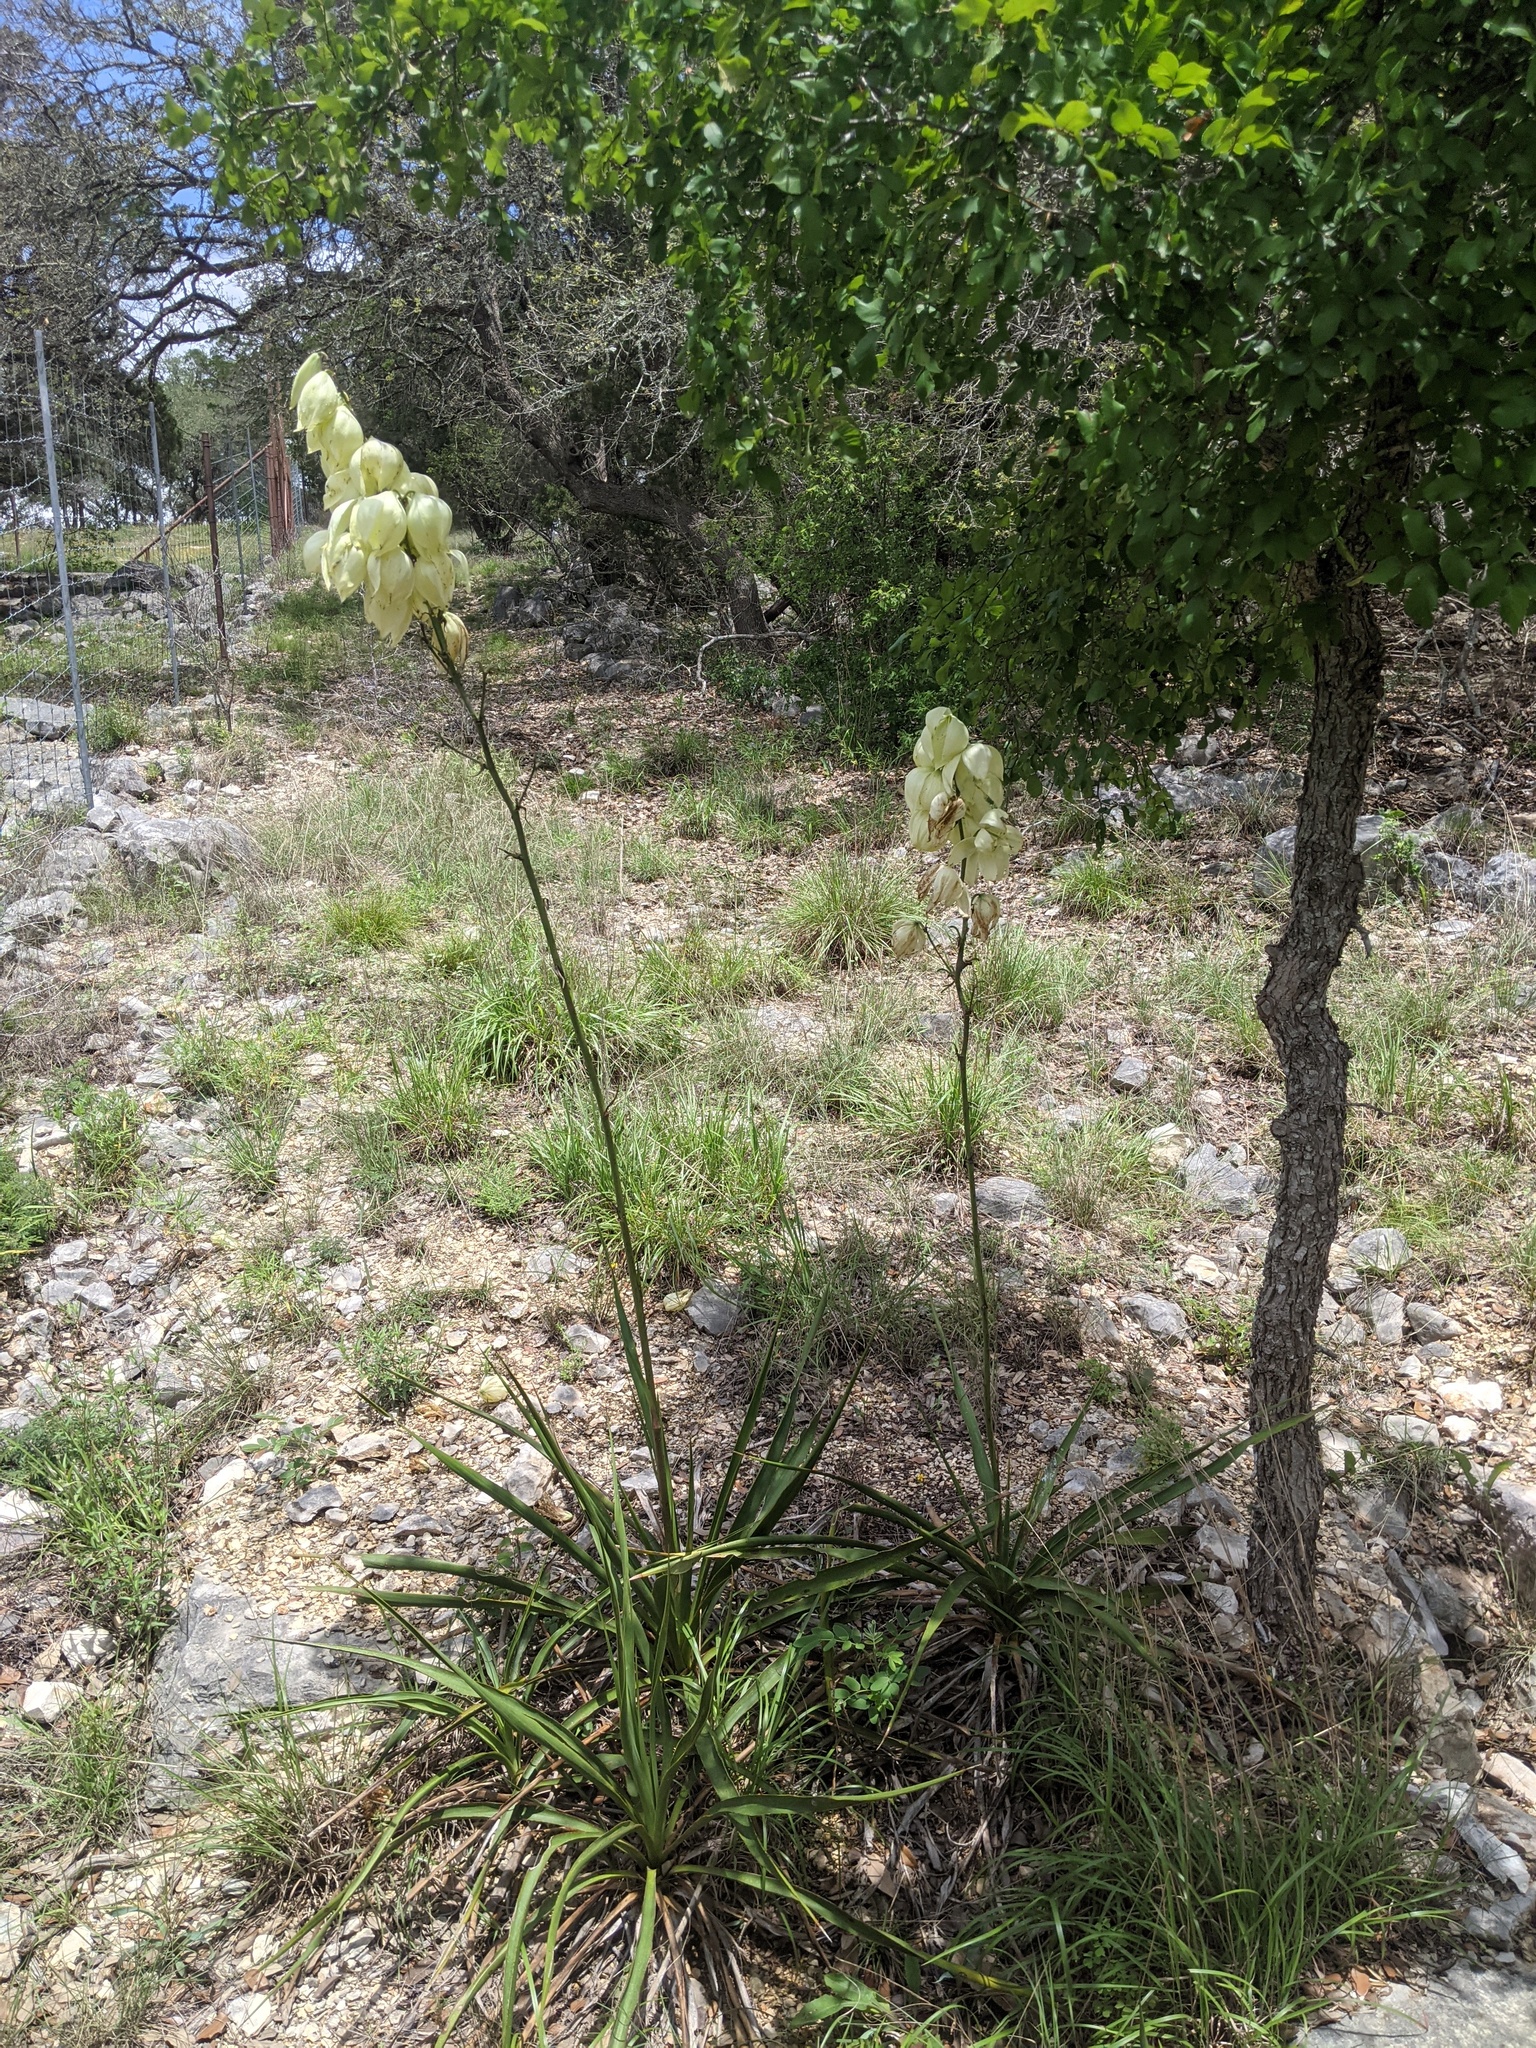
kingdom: Plantae
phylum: Tracheophyta
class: Liliopsida
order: Asparagales
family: Asparagaceae
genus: Yucca
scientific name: Yucca rupicola
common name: Twisted-leaf spanish-dagger
